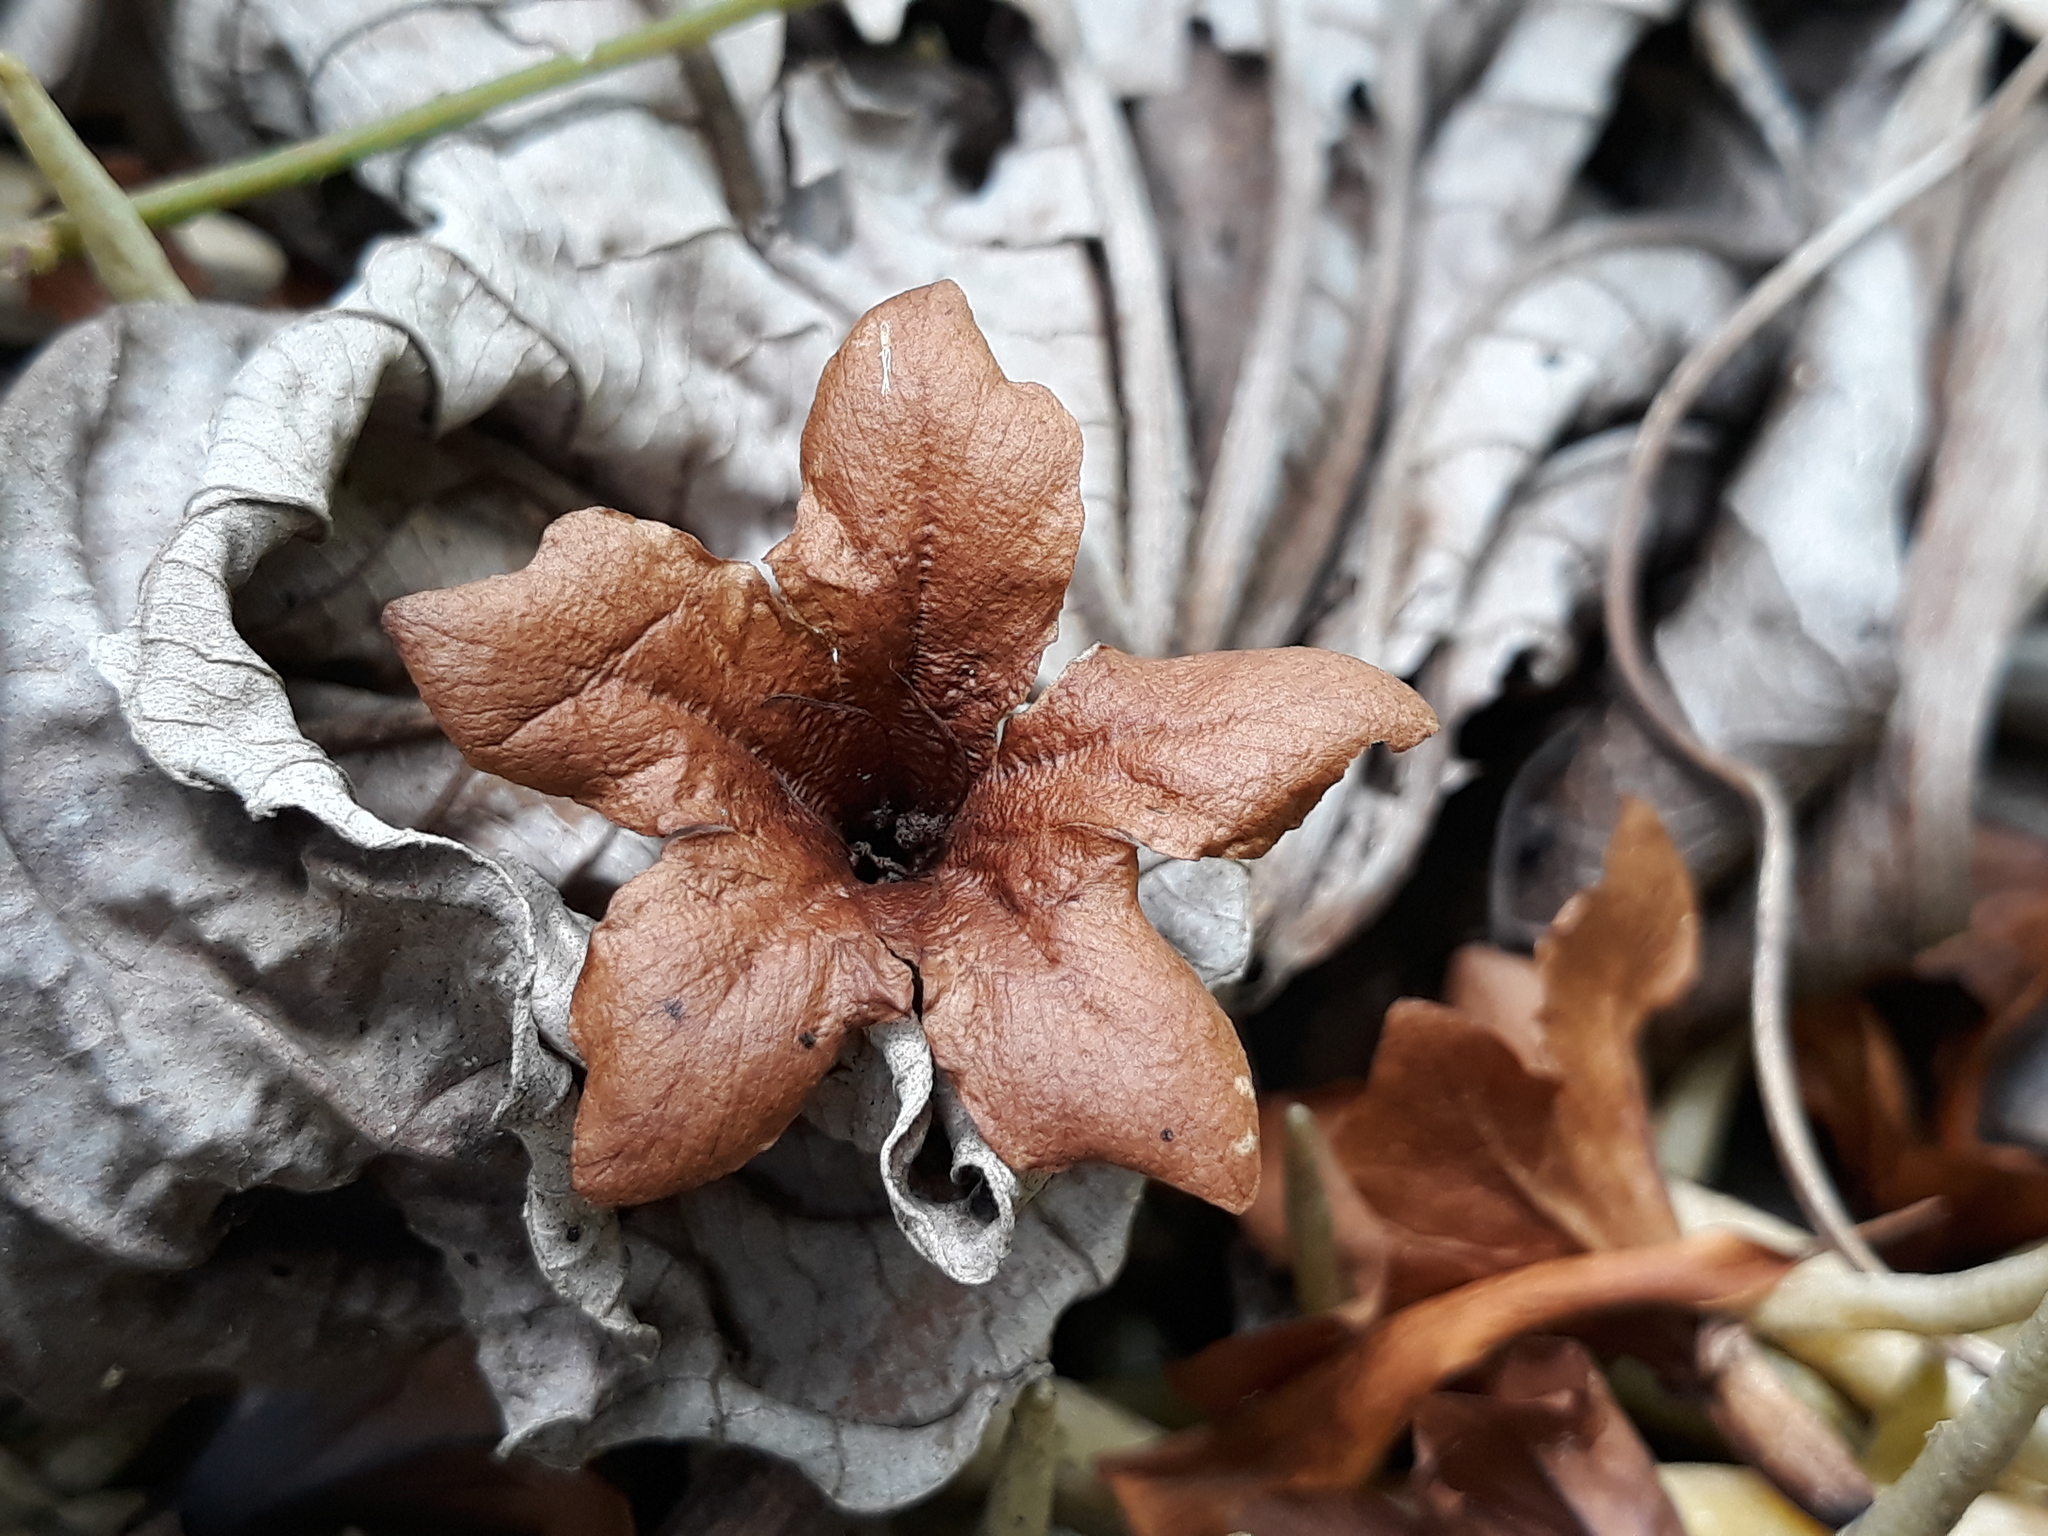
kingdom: Plantae
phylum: Tracheophyta
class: Magnoliopsida
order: Boraginales
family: Cordiaceae
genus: Cordia
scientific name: Cordia megalantha
